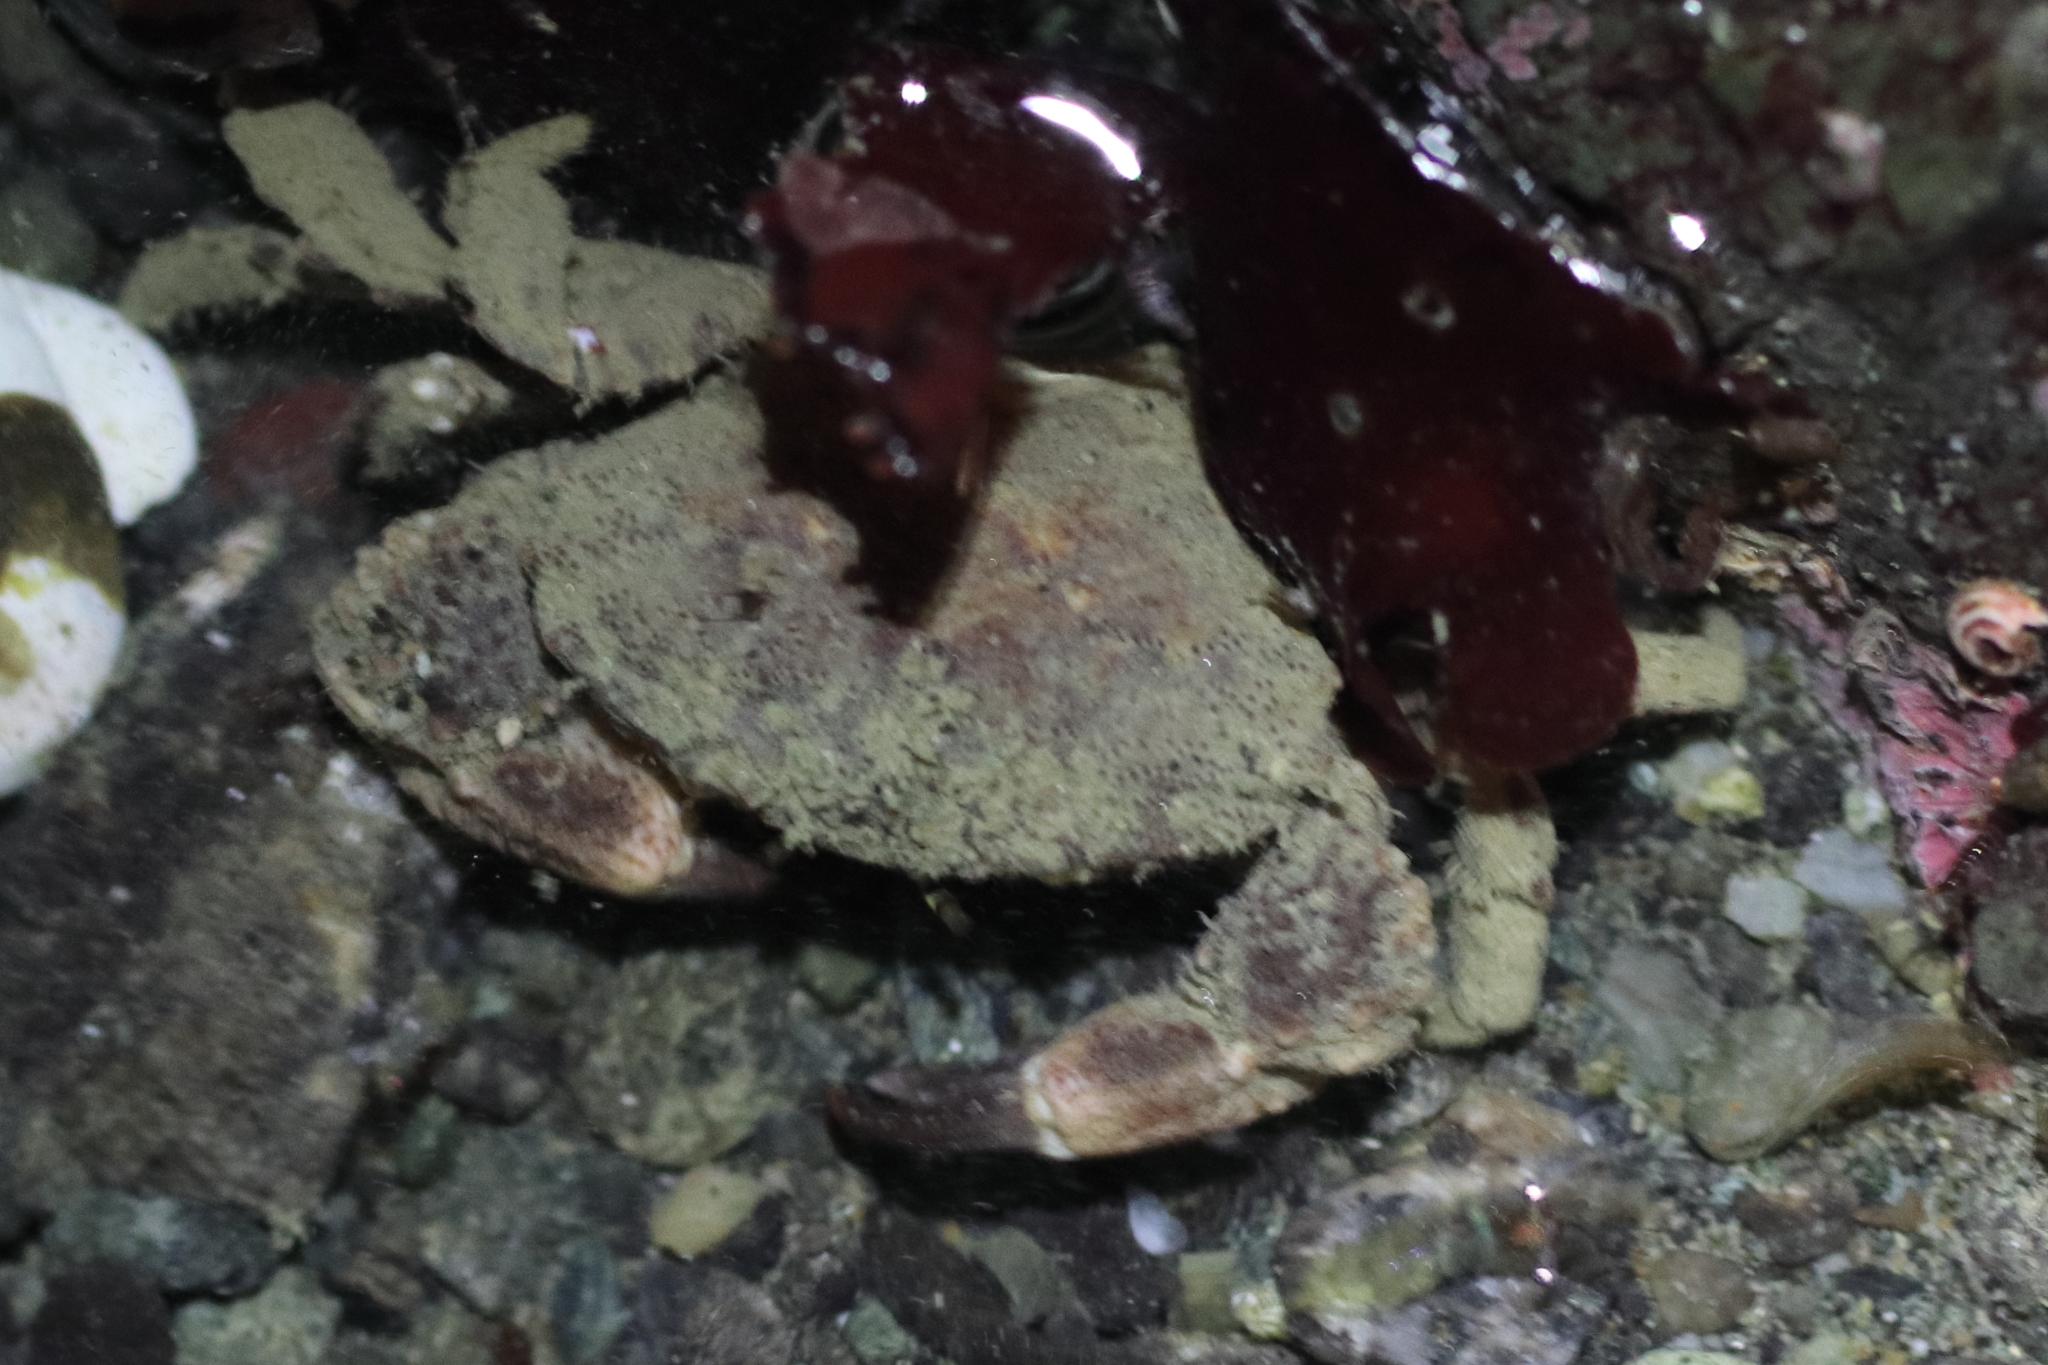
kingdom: Animalia
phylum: Arthropoda
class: Malacostraca
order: Decapoda
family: Panopeidae
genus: Lophopanopeus
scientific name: Lophopanopeus bellus
